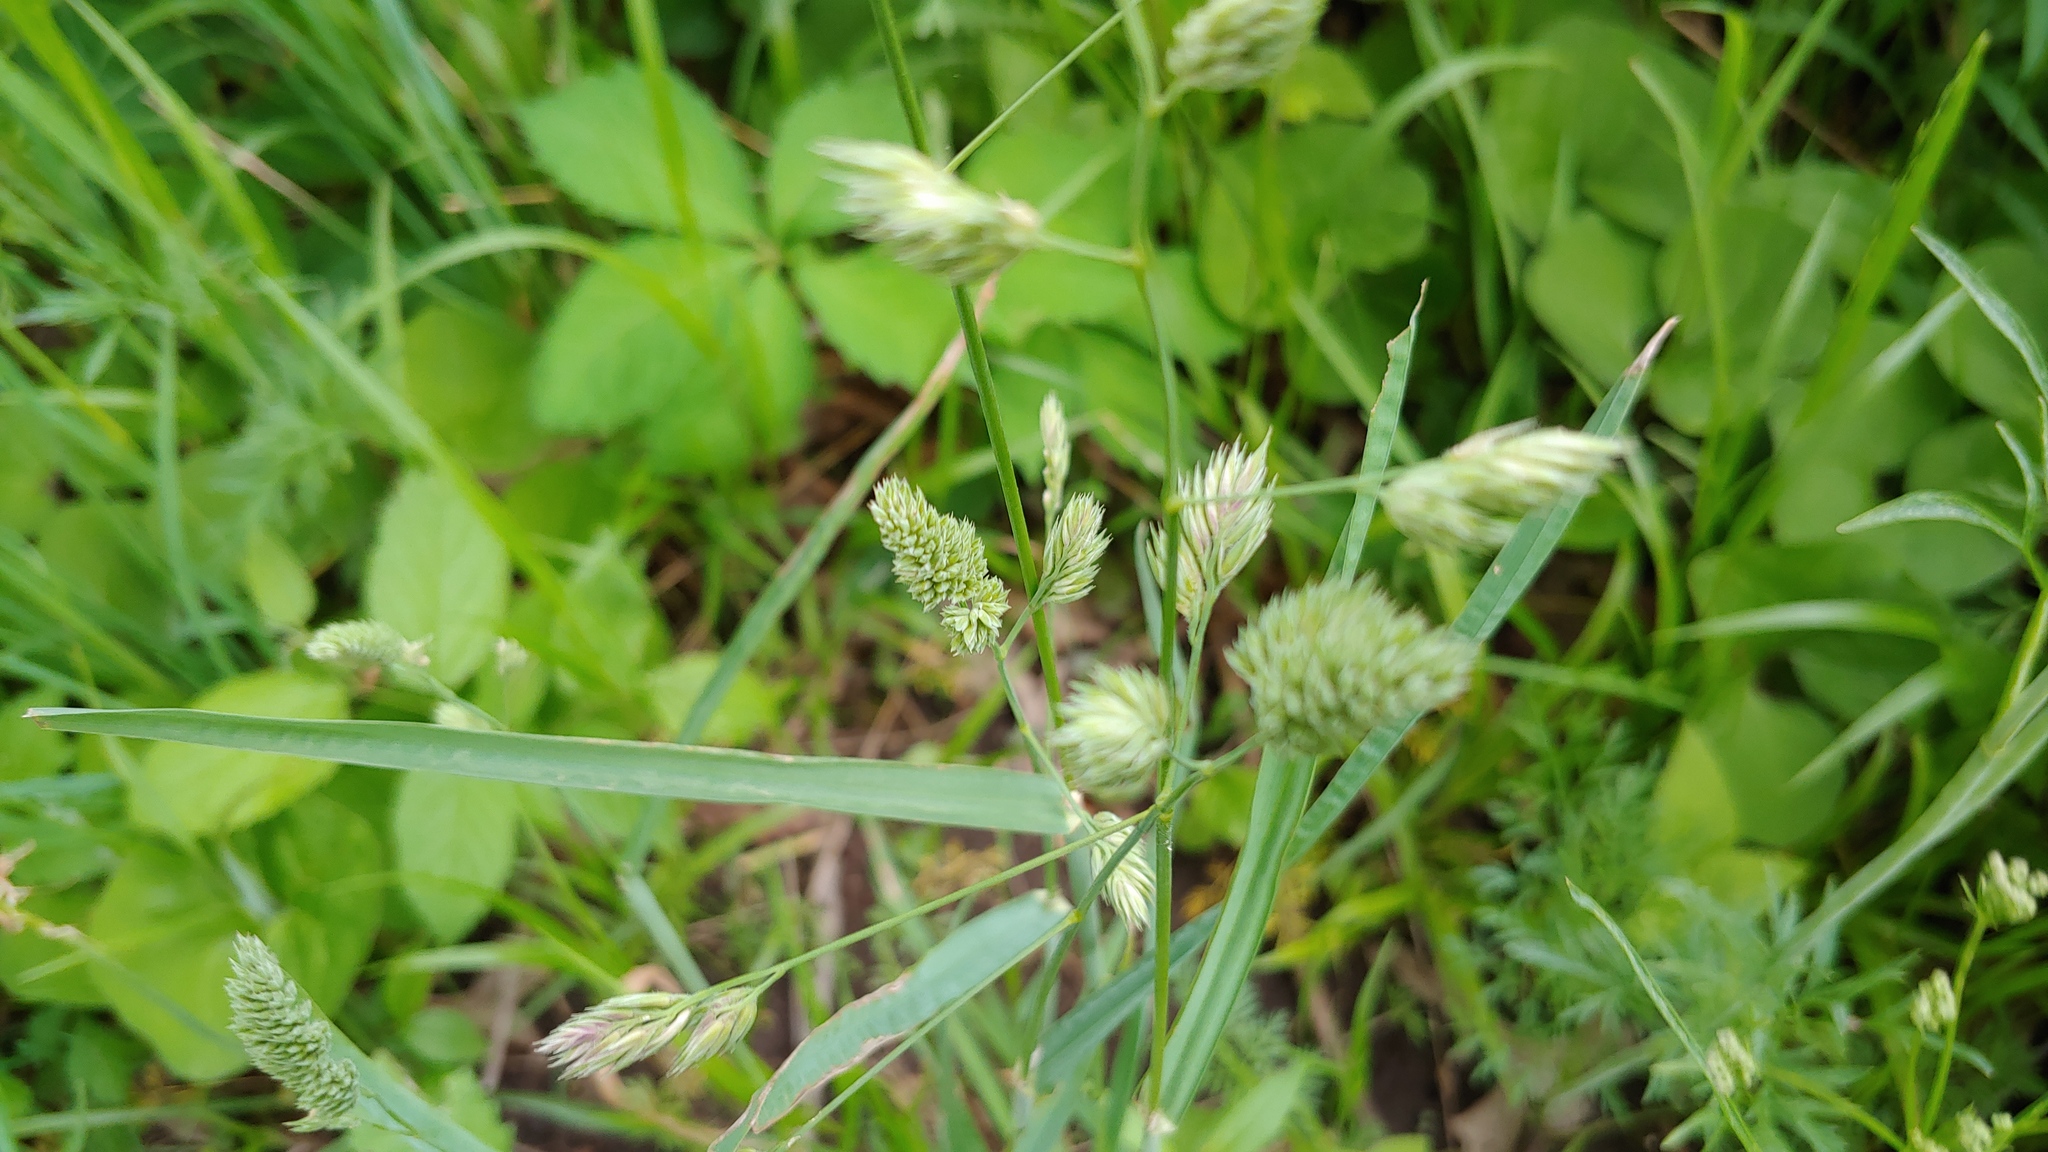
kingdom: Plantae
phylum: Tracheophyta
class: Liliopsida
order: Poales
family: Poaceae
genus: Dactylis
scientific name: Dactylis glomerata
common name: Orchardgrass
